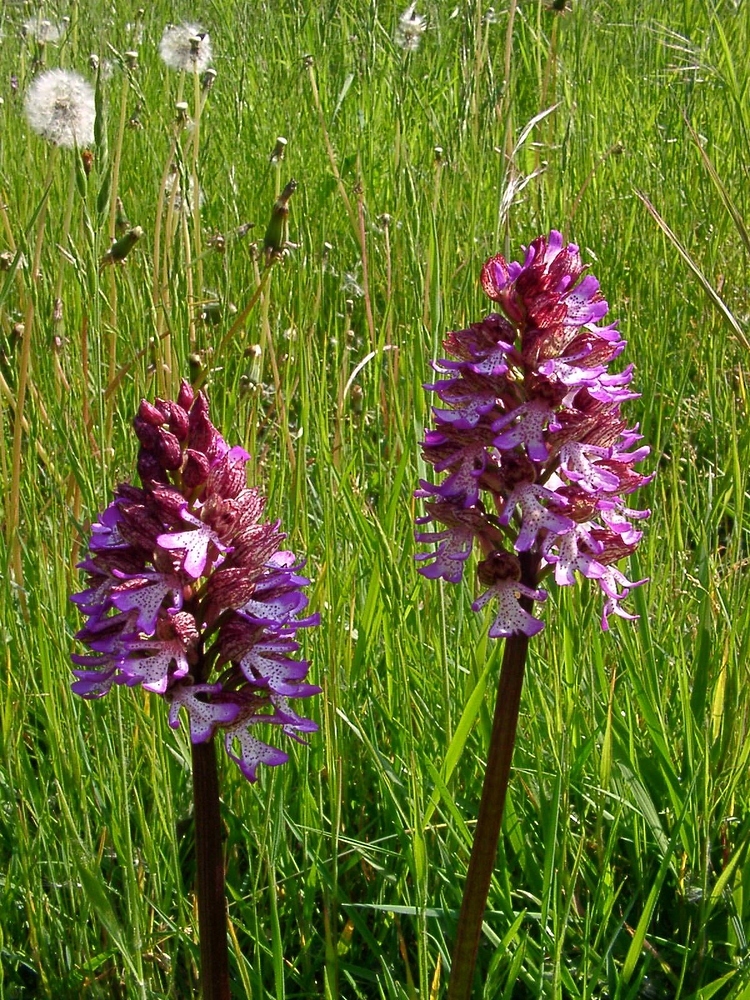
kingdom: Plantae
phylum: Tracheophyta
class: Liliopsida
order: Asparagales
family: Orchidaceae
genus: Orchis
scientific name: Orchis purpurea
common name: Lady orchid
